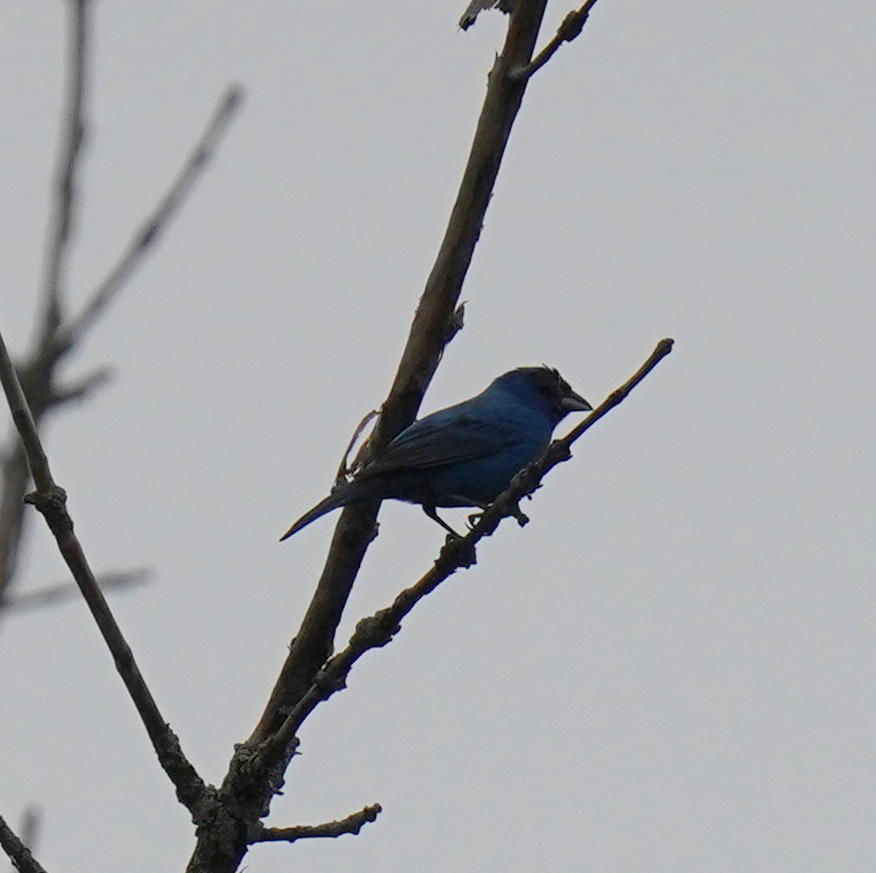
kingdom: Animalia
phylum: Chordata
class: Aves
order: Passeriformes
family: Cardinalidae
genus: Passerina
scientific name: Passerina cyanea
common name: Indigo bunting
